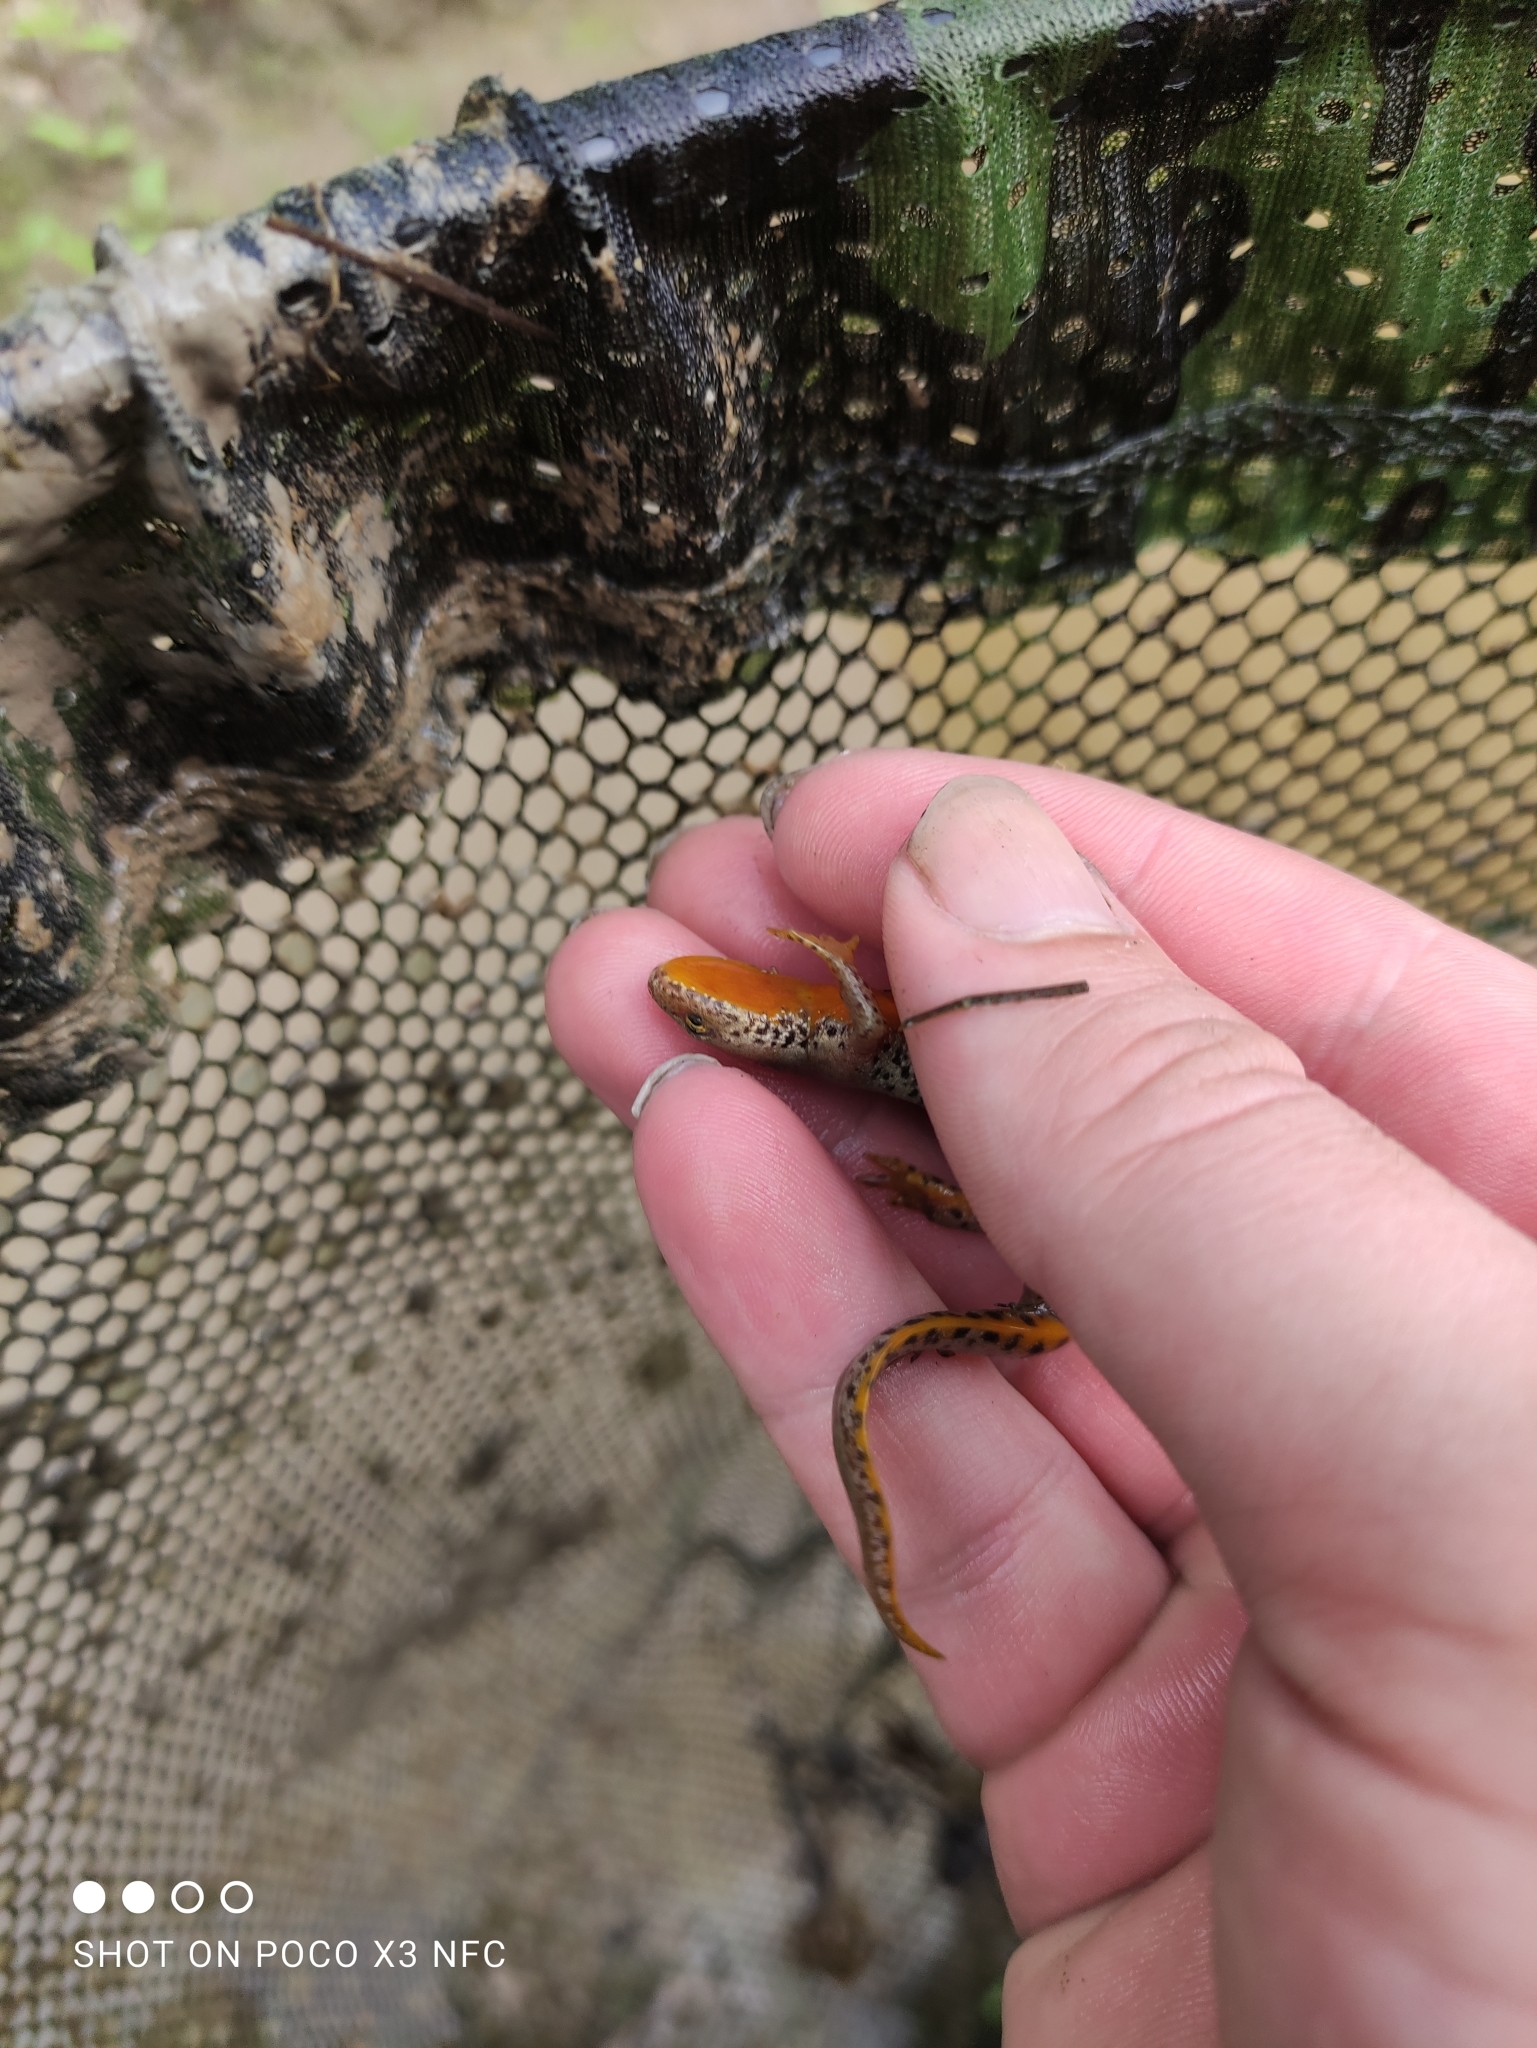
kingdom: Animalia
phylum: Chordata
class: Amphibia
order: Caudata
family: Salamandridae
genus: Ichthyosaura
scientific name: Ichthyosaura alpestris
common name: Alpine newt
